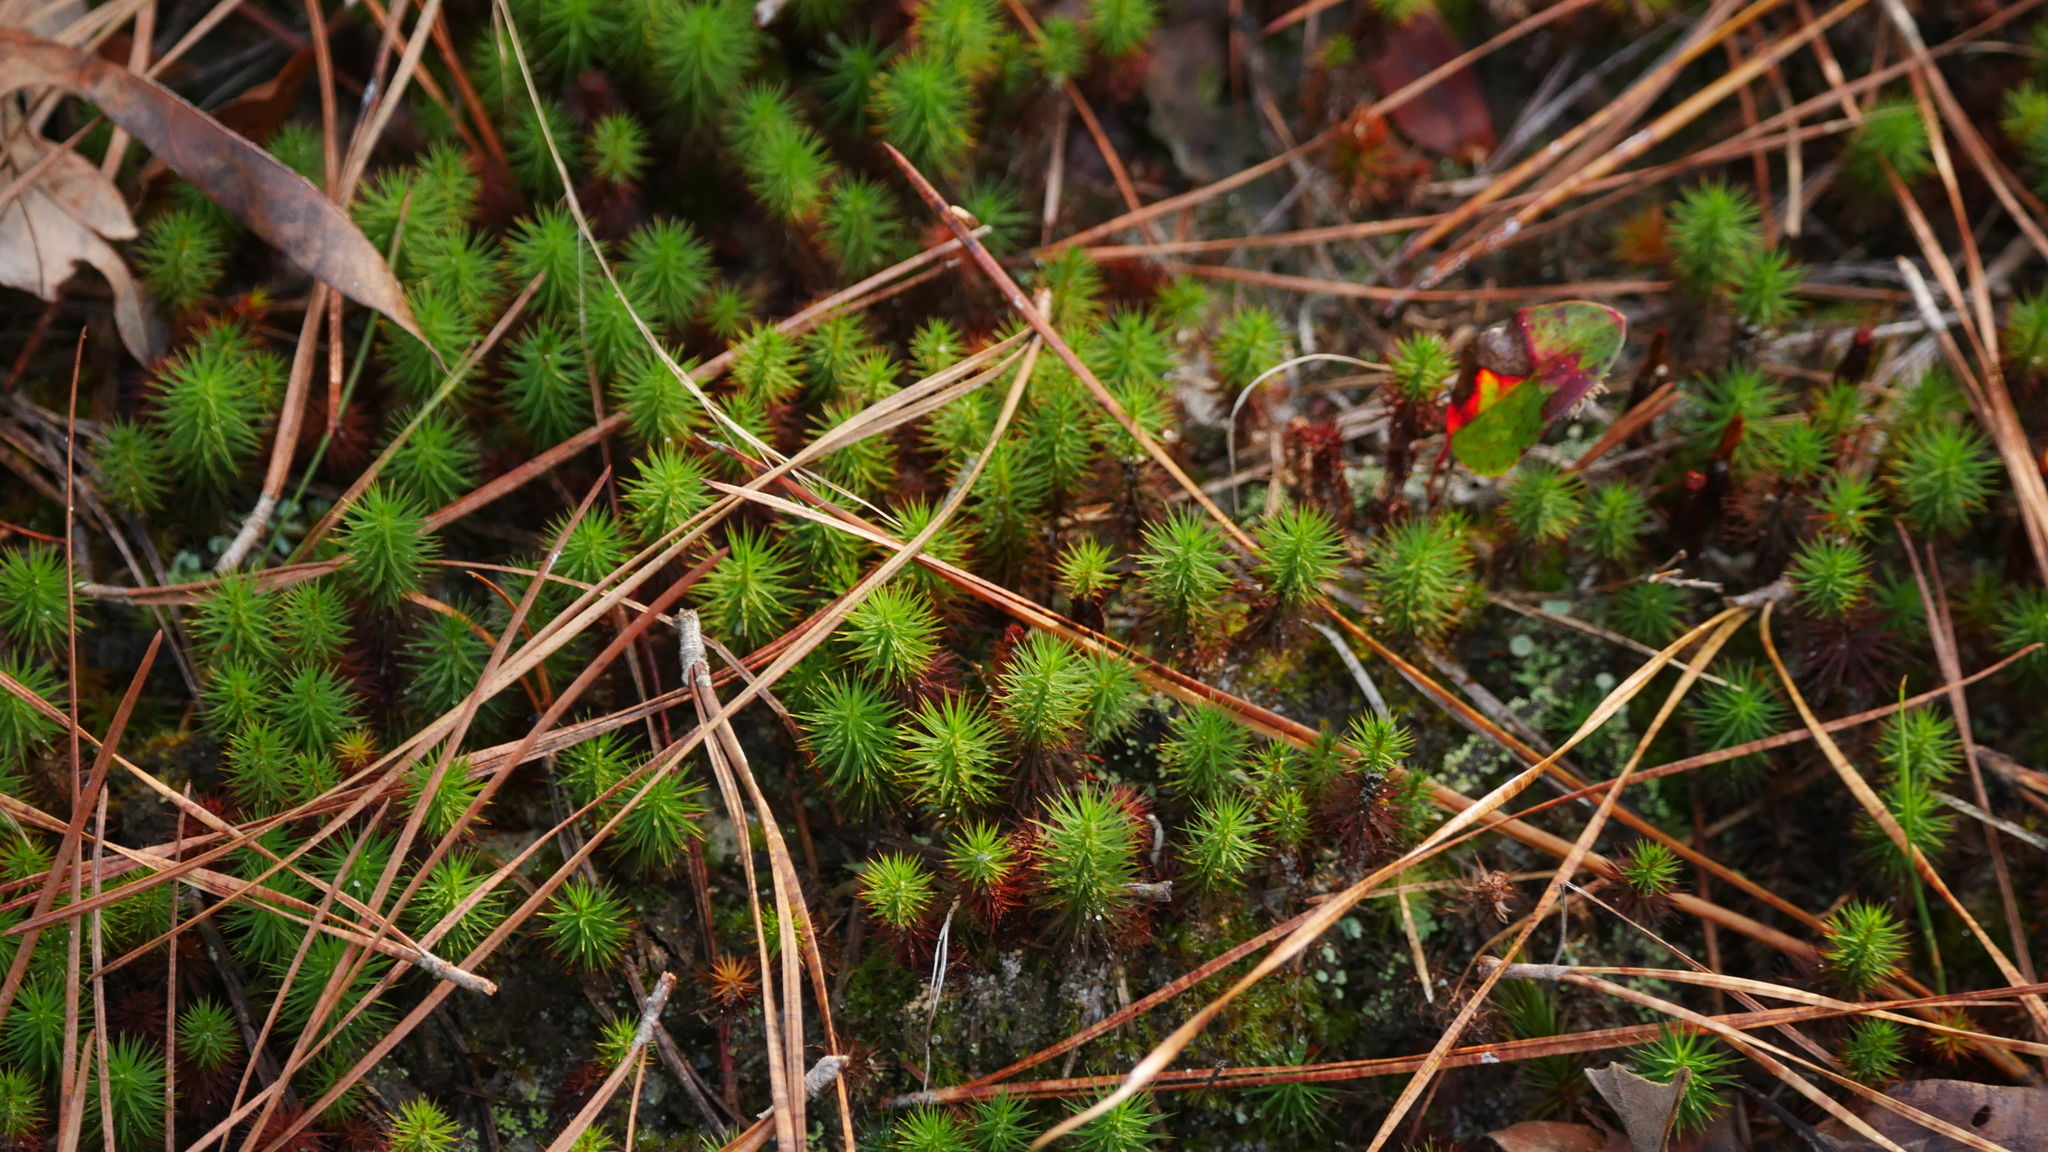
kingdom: Plantae
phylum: Bryophyta
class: Polytrichopsida
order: Polytrichales
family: Polytrichaceae
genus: Polytrichum
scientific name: Polytrichum juniperinum
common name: Juniper haircap moss
